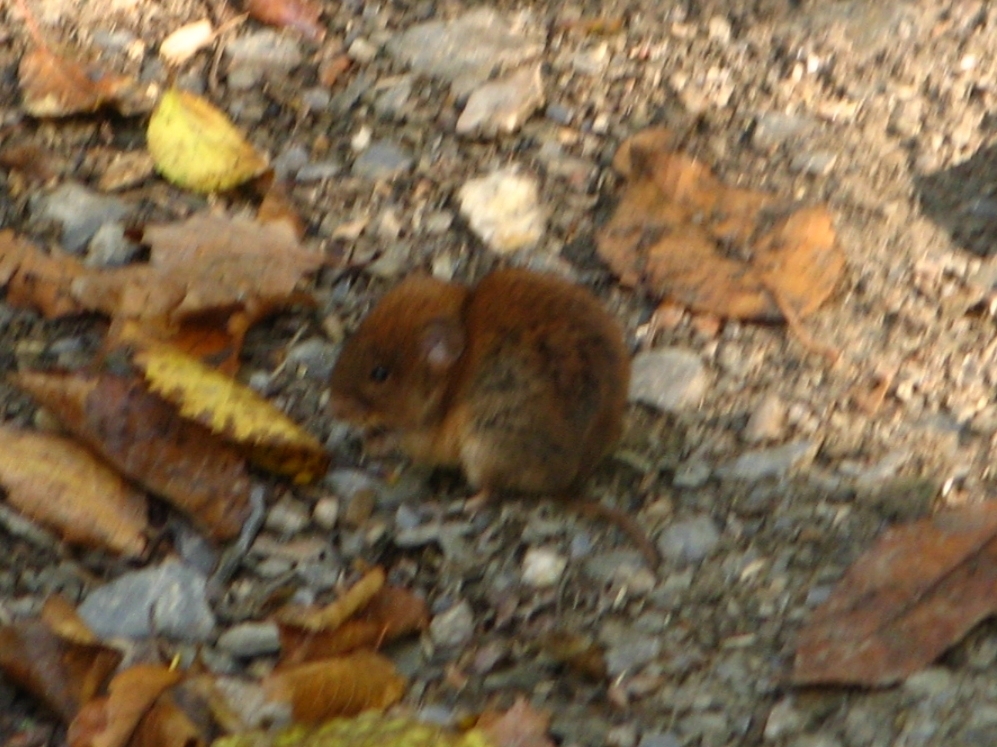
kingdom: Animalia
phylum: Chordata
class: Mammalia
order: Rodentia
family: Cricetidae
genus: Myodes
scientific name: Myodes glareolus
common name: Bank vole
